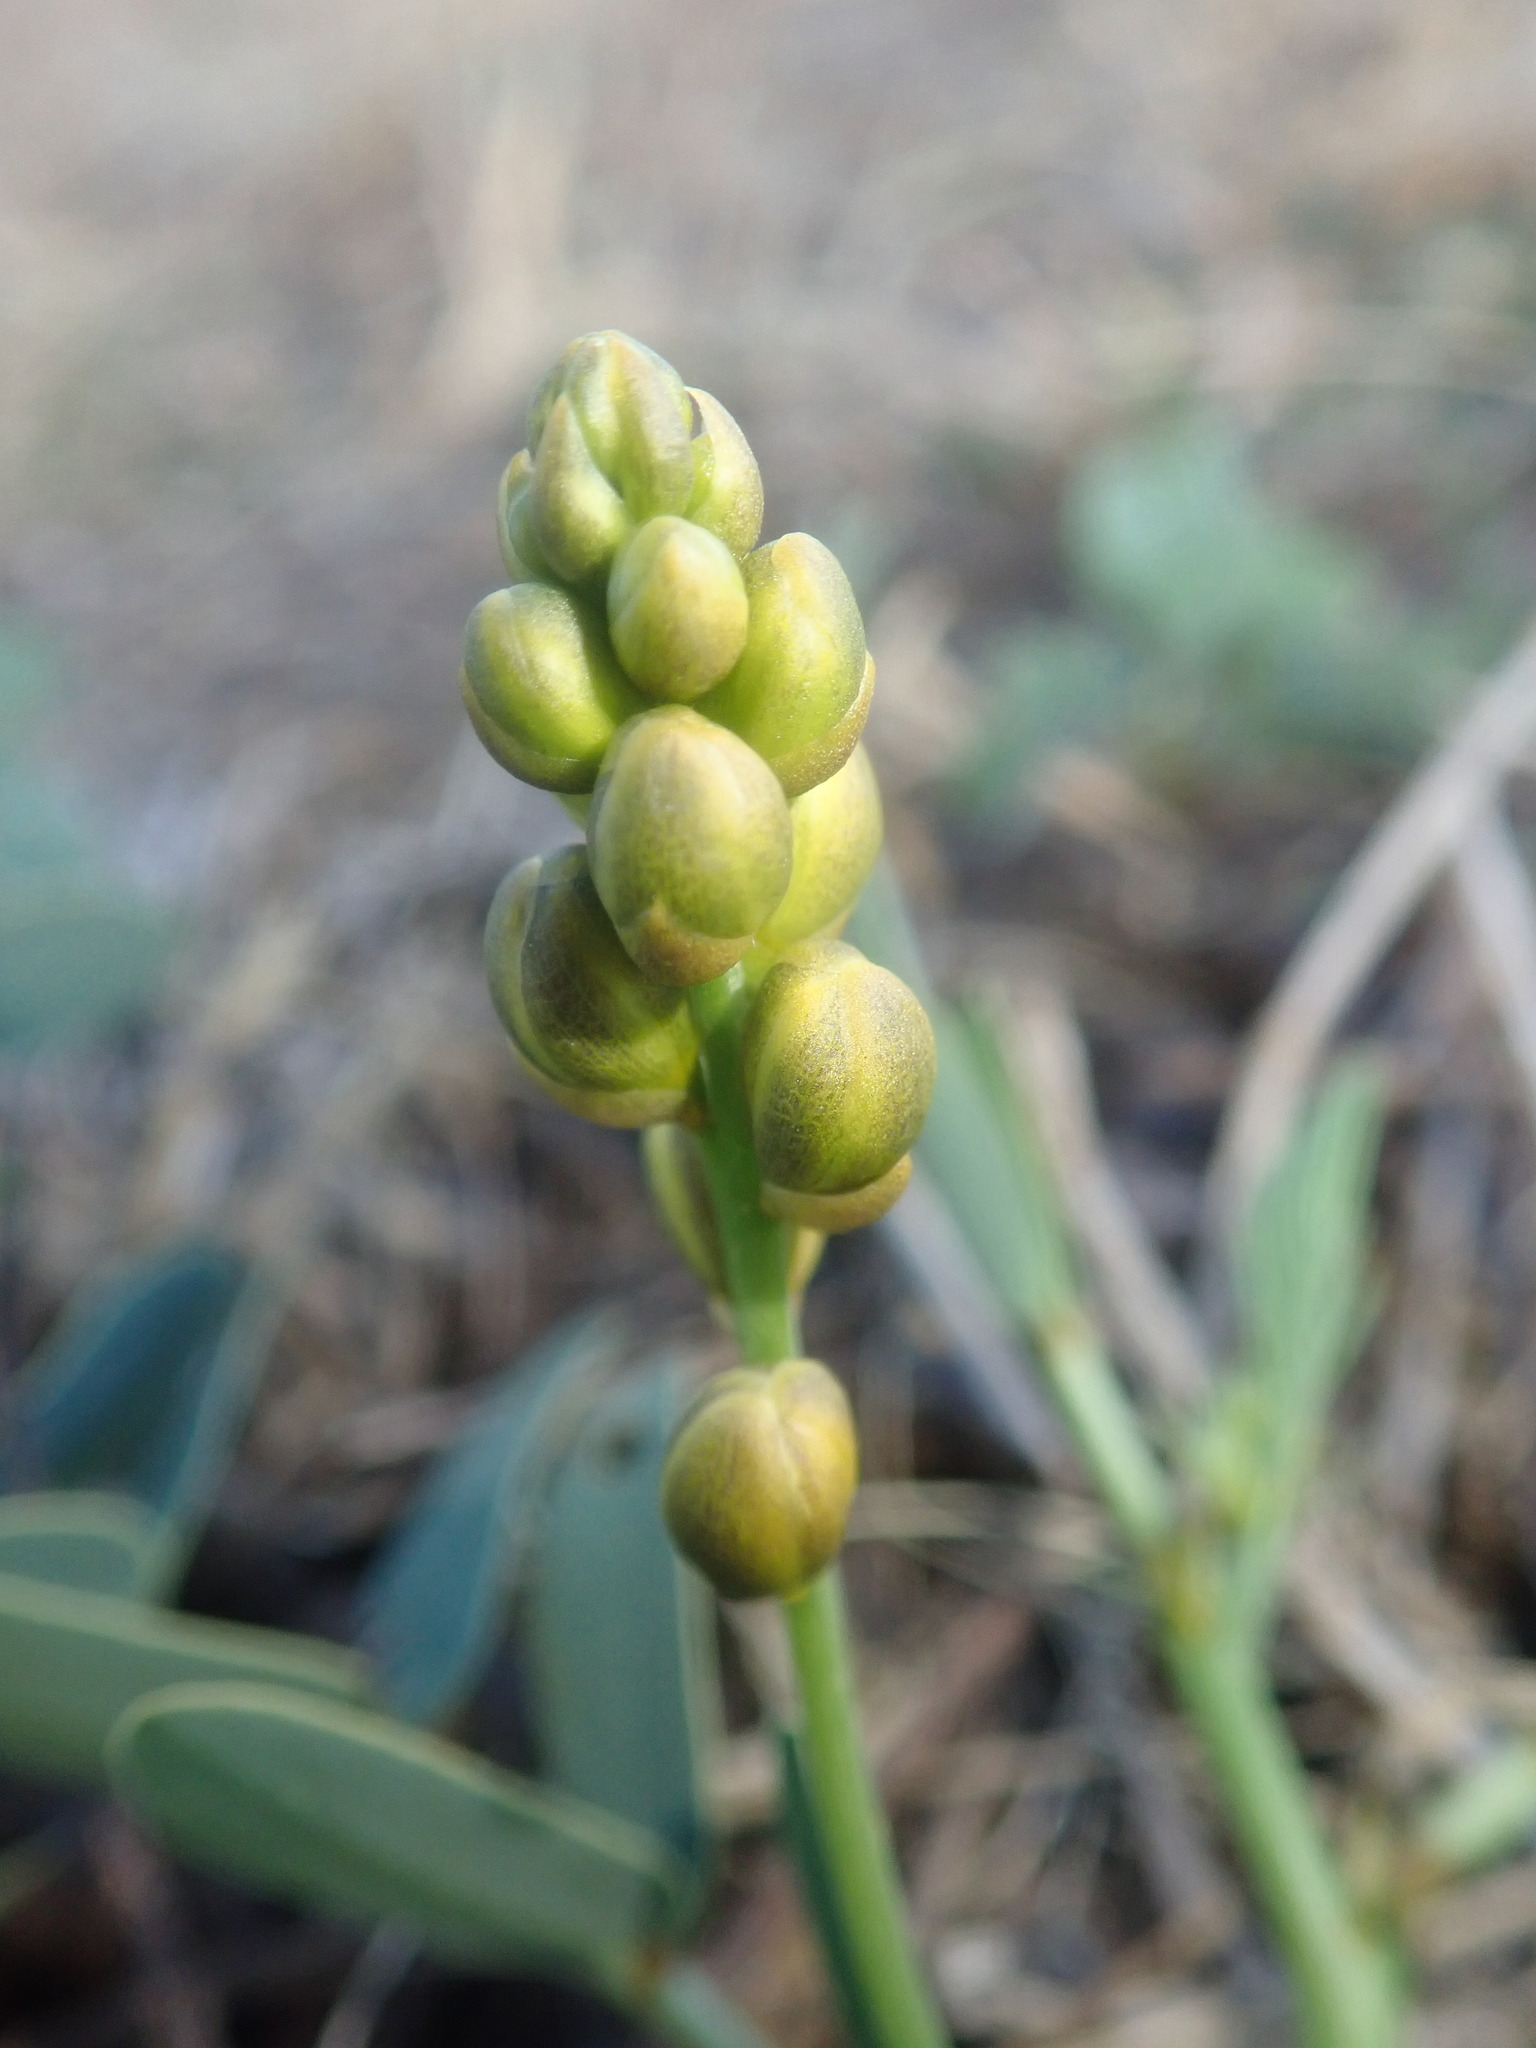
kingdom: Plantae
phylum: Tracheophyta
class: Magnoliopsida
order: Fabales
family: Fabaceae
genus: Senna
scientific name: Senna italica
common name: Port royal senna
